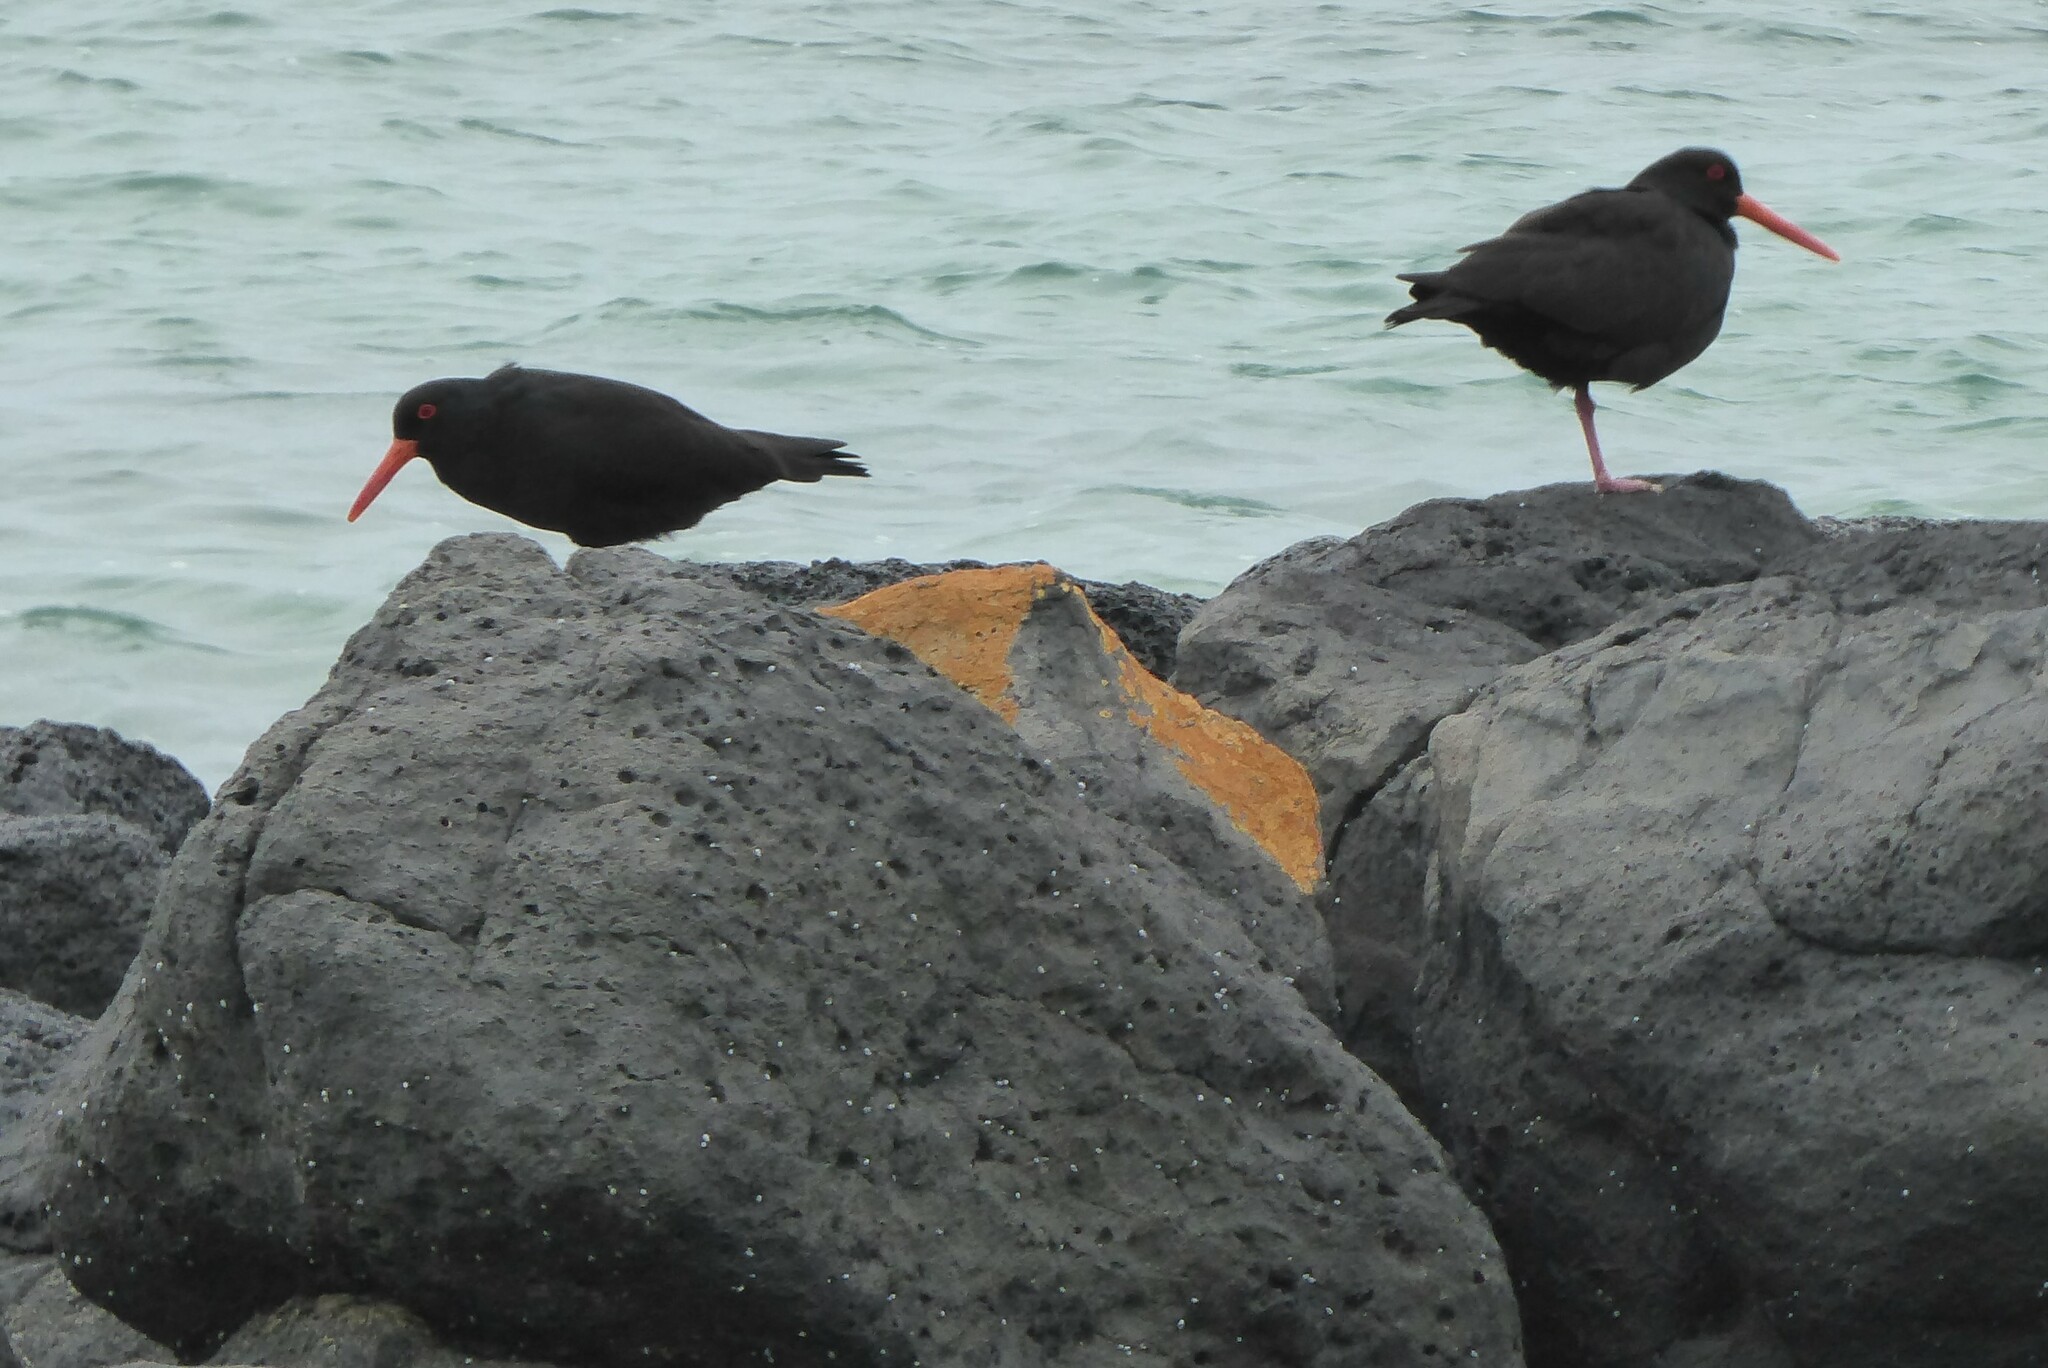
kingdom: Animalia
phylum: Chordata
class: Aves
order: Charadriiformes
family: Haematopodidae
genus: Haematopus
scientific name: Haematopus fuliginosus
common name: Sooty oystercatcher
